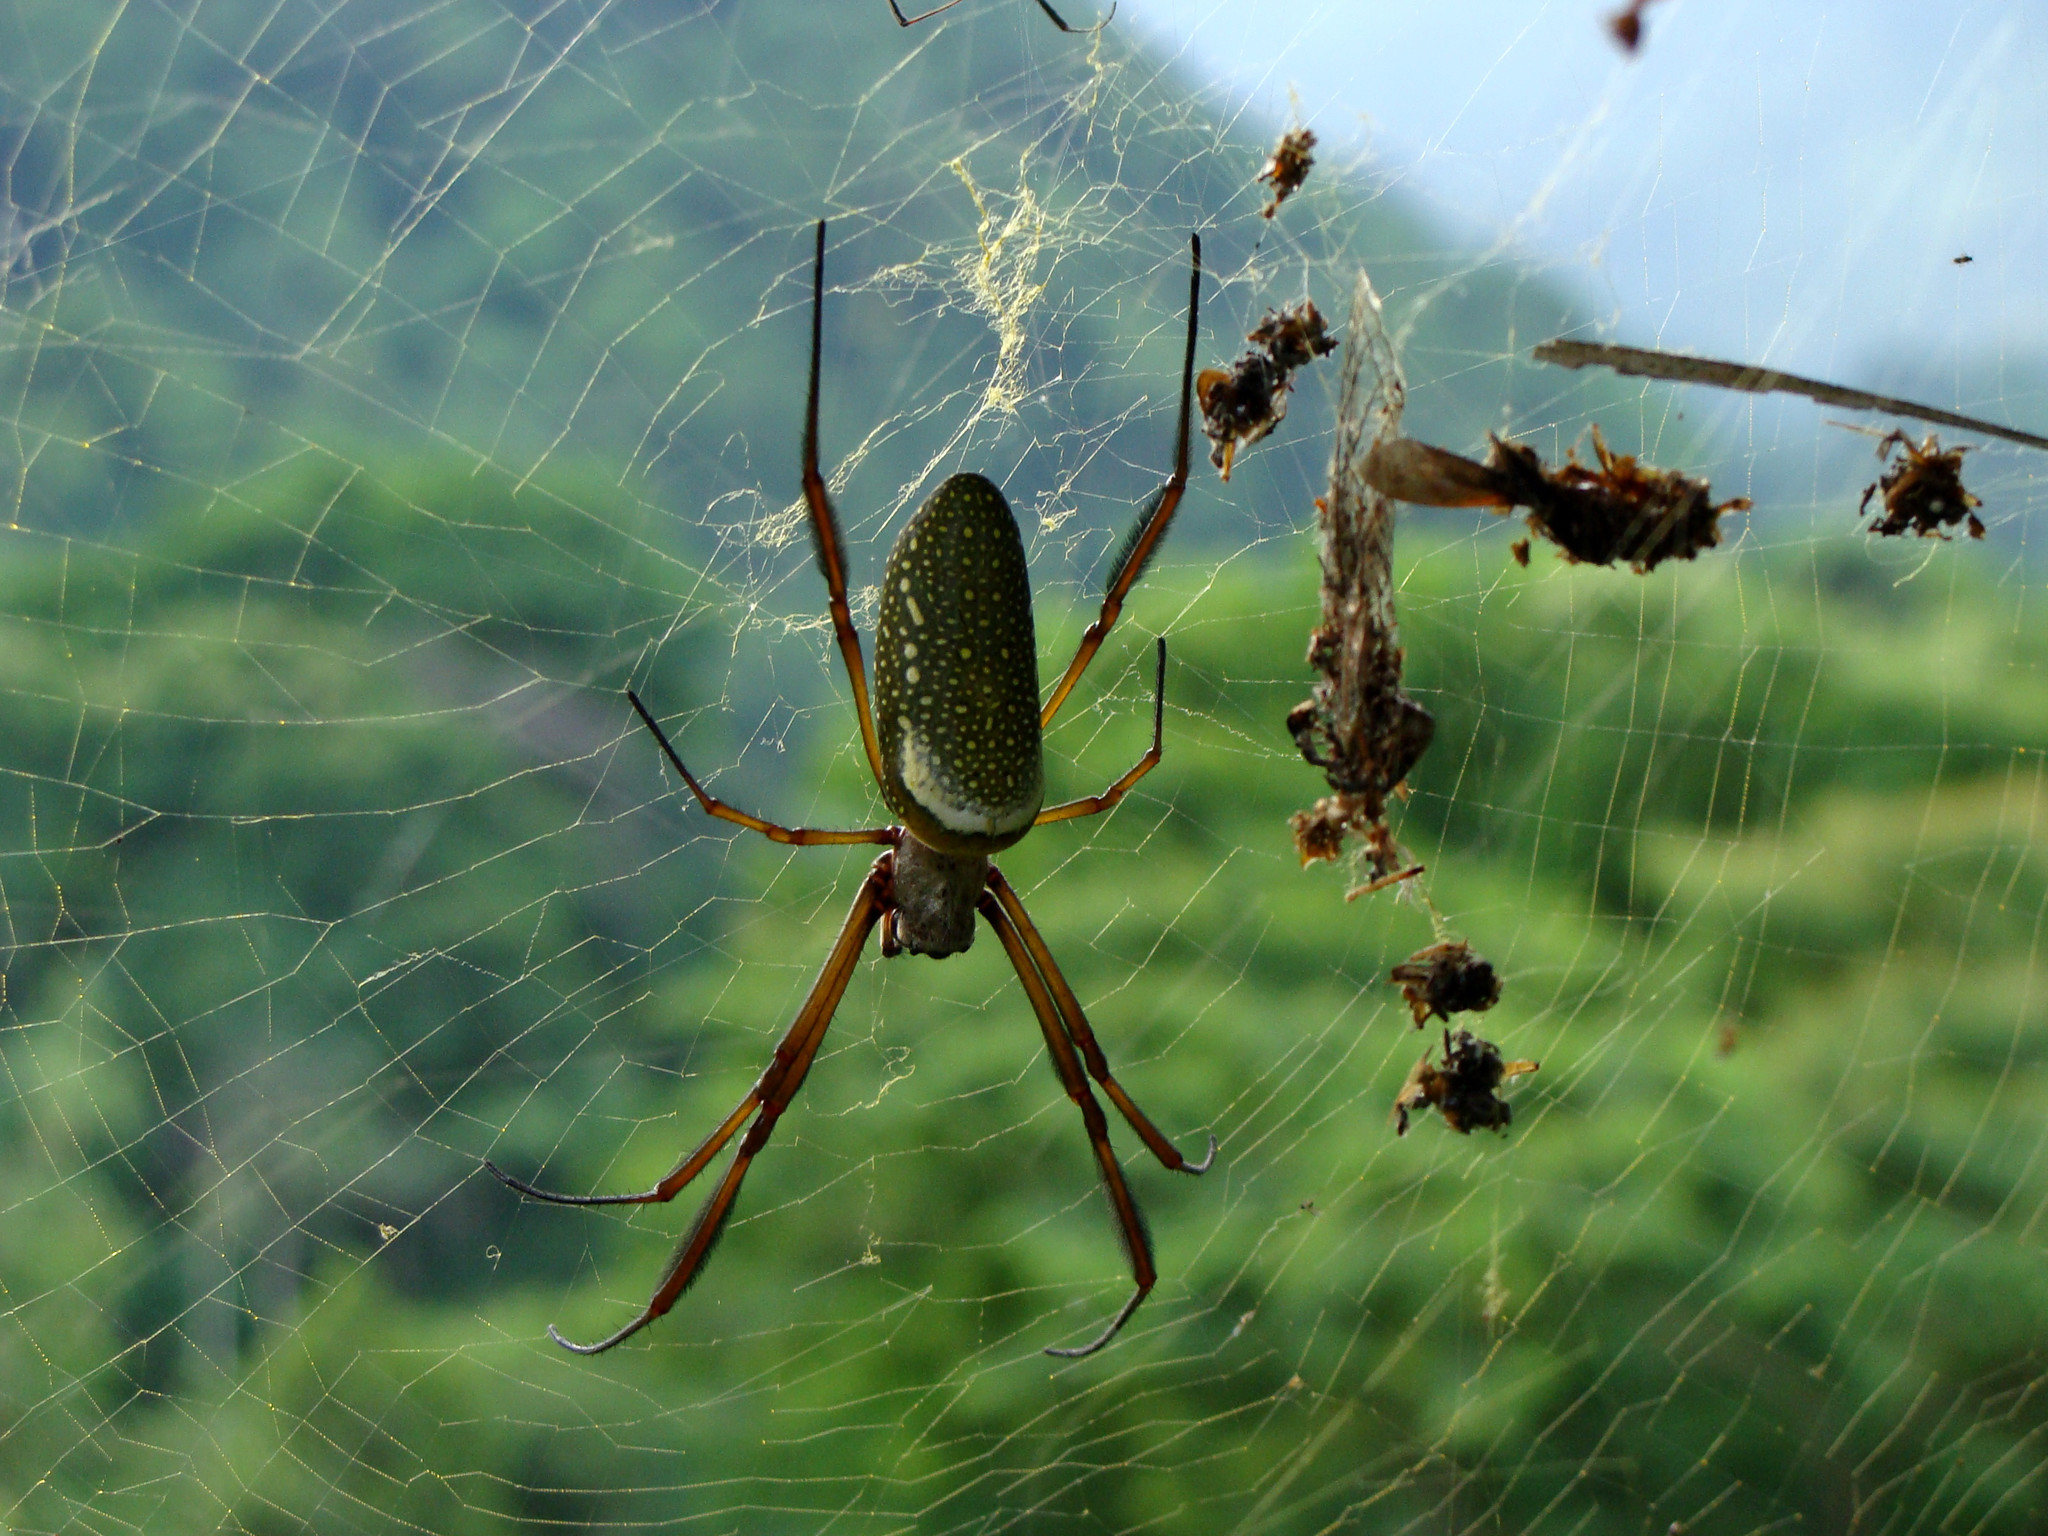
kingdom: Animalia
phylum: Arthropoda
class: Arachnida
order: Araneae
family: Araneidae
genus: Trichonephila
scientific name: Trichonephila clavipes
